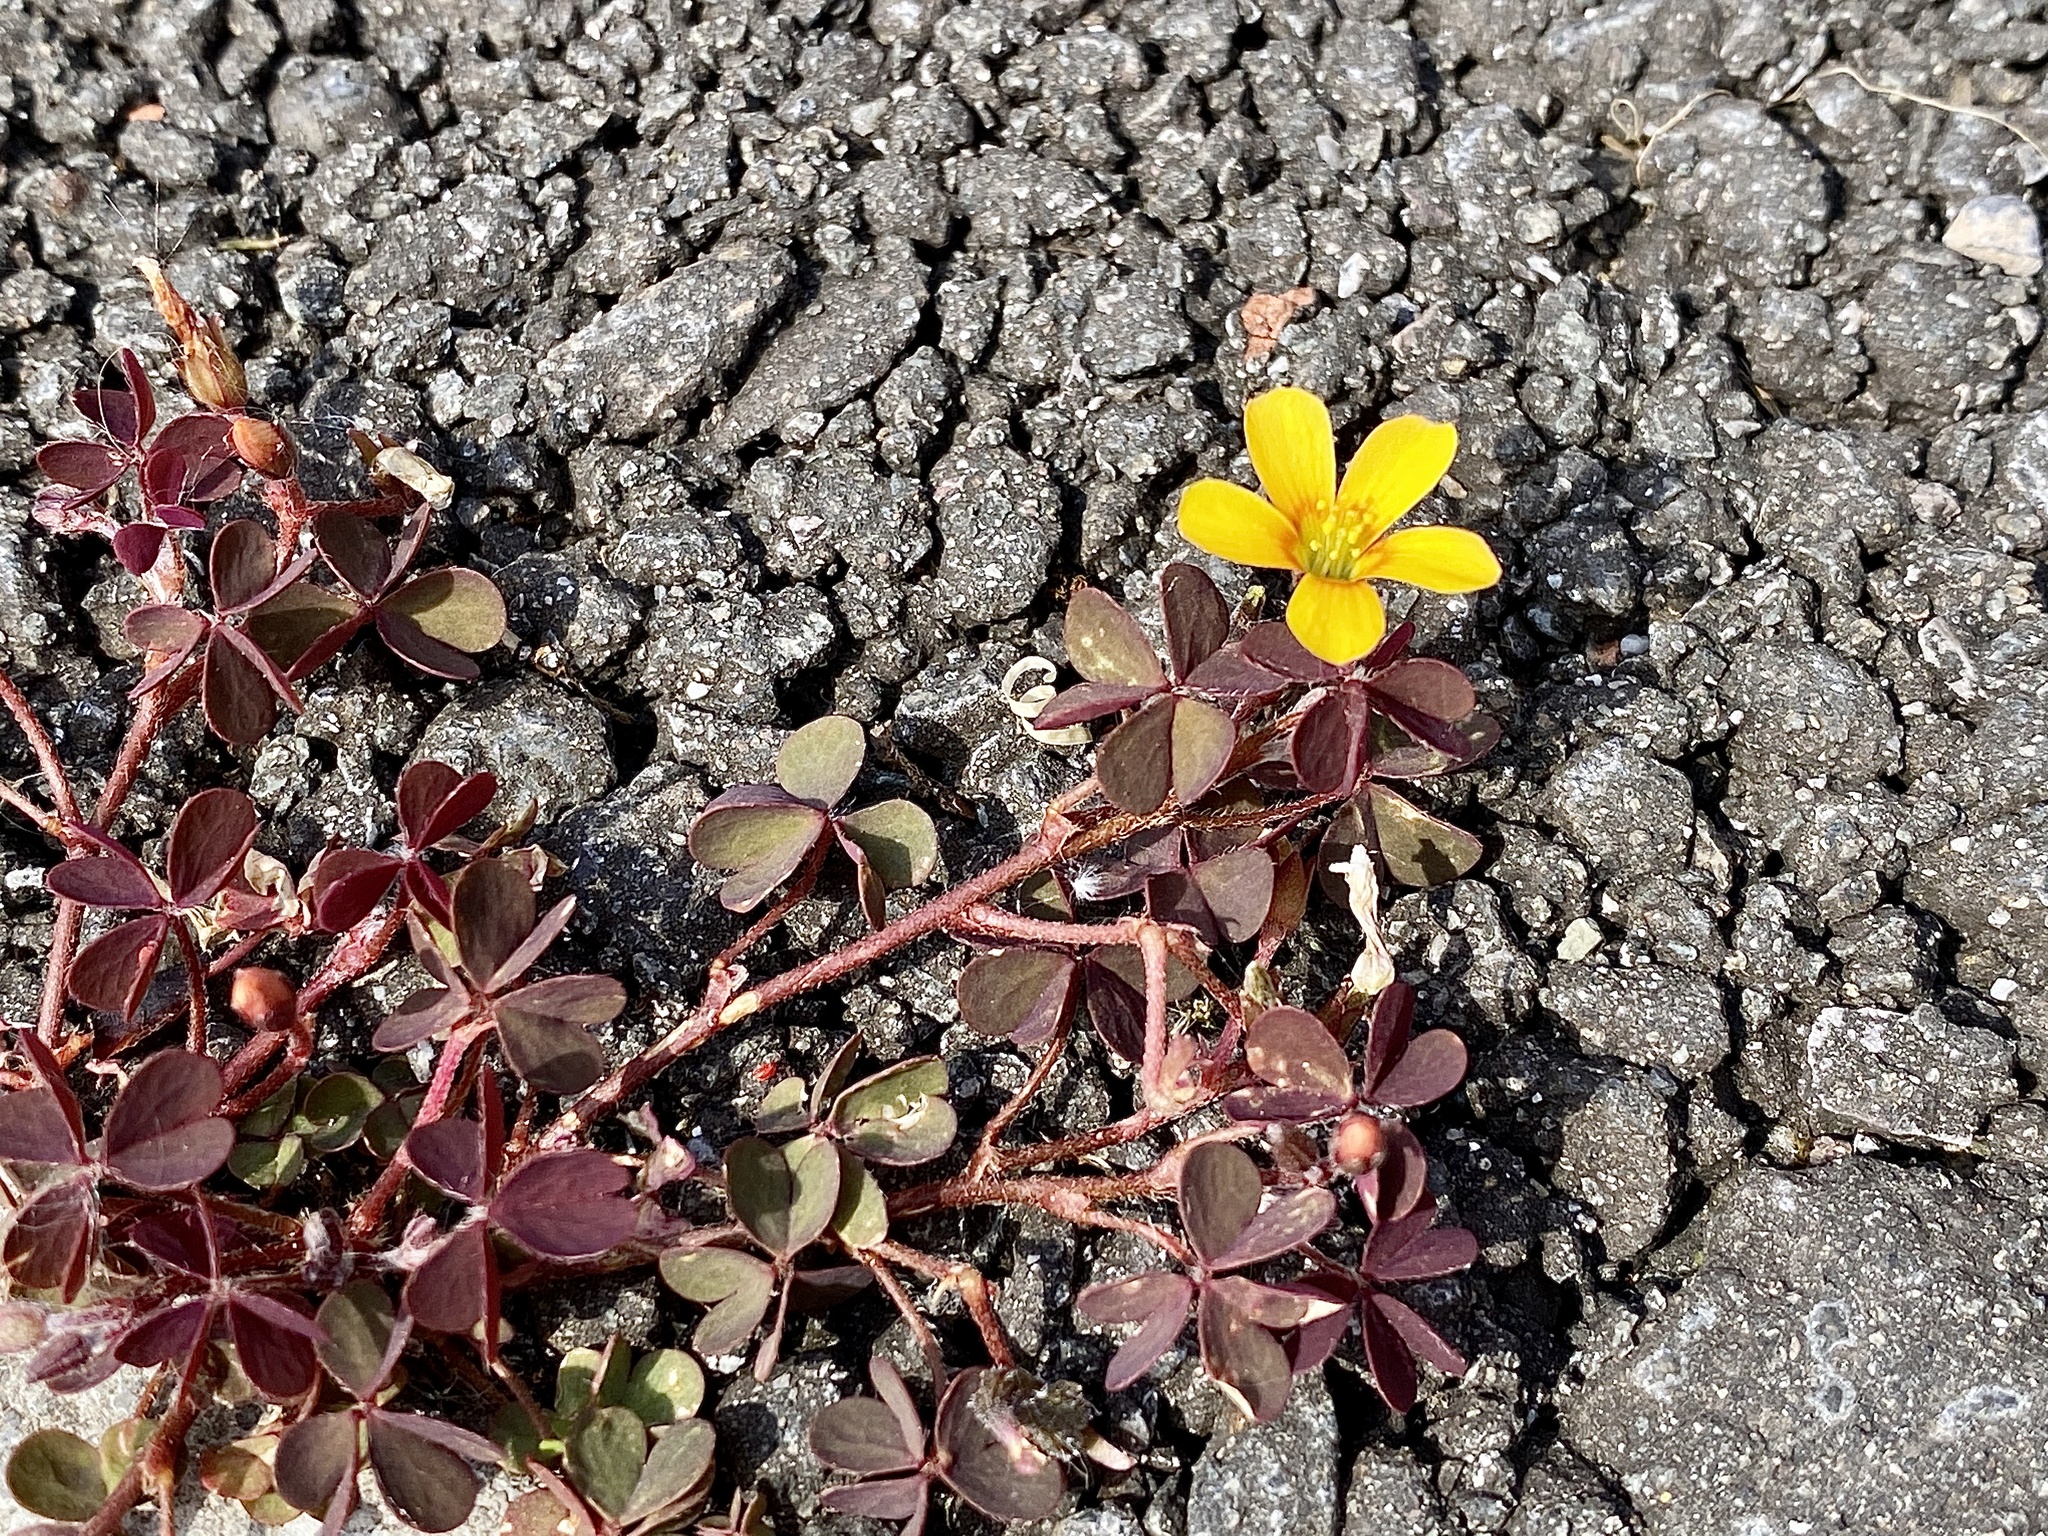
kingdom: Plantae
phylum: Tracheophyta
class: Magnoliopsida
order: Oxalidales
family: Oxalidaceae
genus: Oxalis
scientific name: Oxalis corniculata
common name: Procumbent yellow-sorrel
